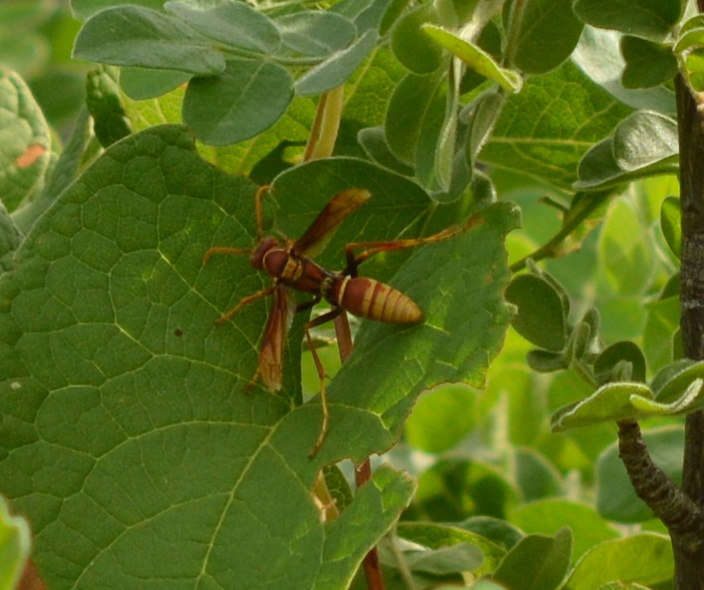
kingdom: Animalia
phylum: Arthropoda
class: Insecta
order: Hymenoptera
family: Eumenidae
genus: Polistes
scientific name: Polistes palmarum
